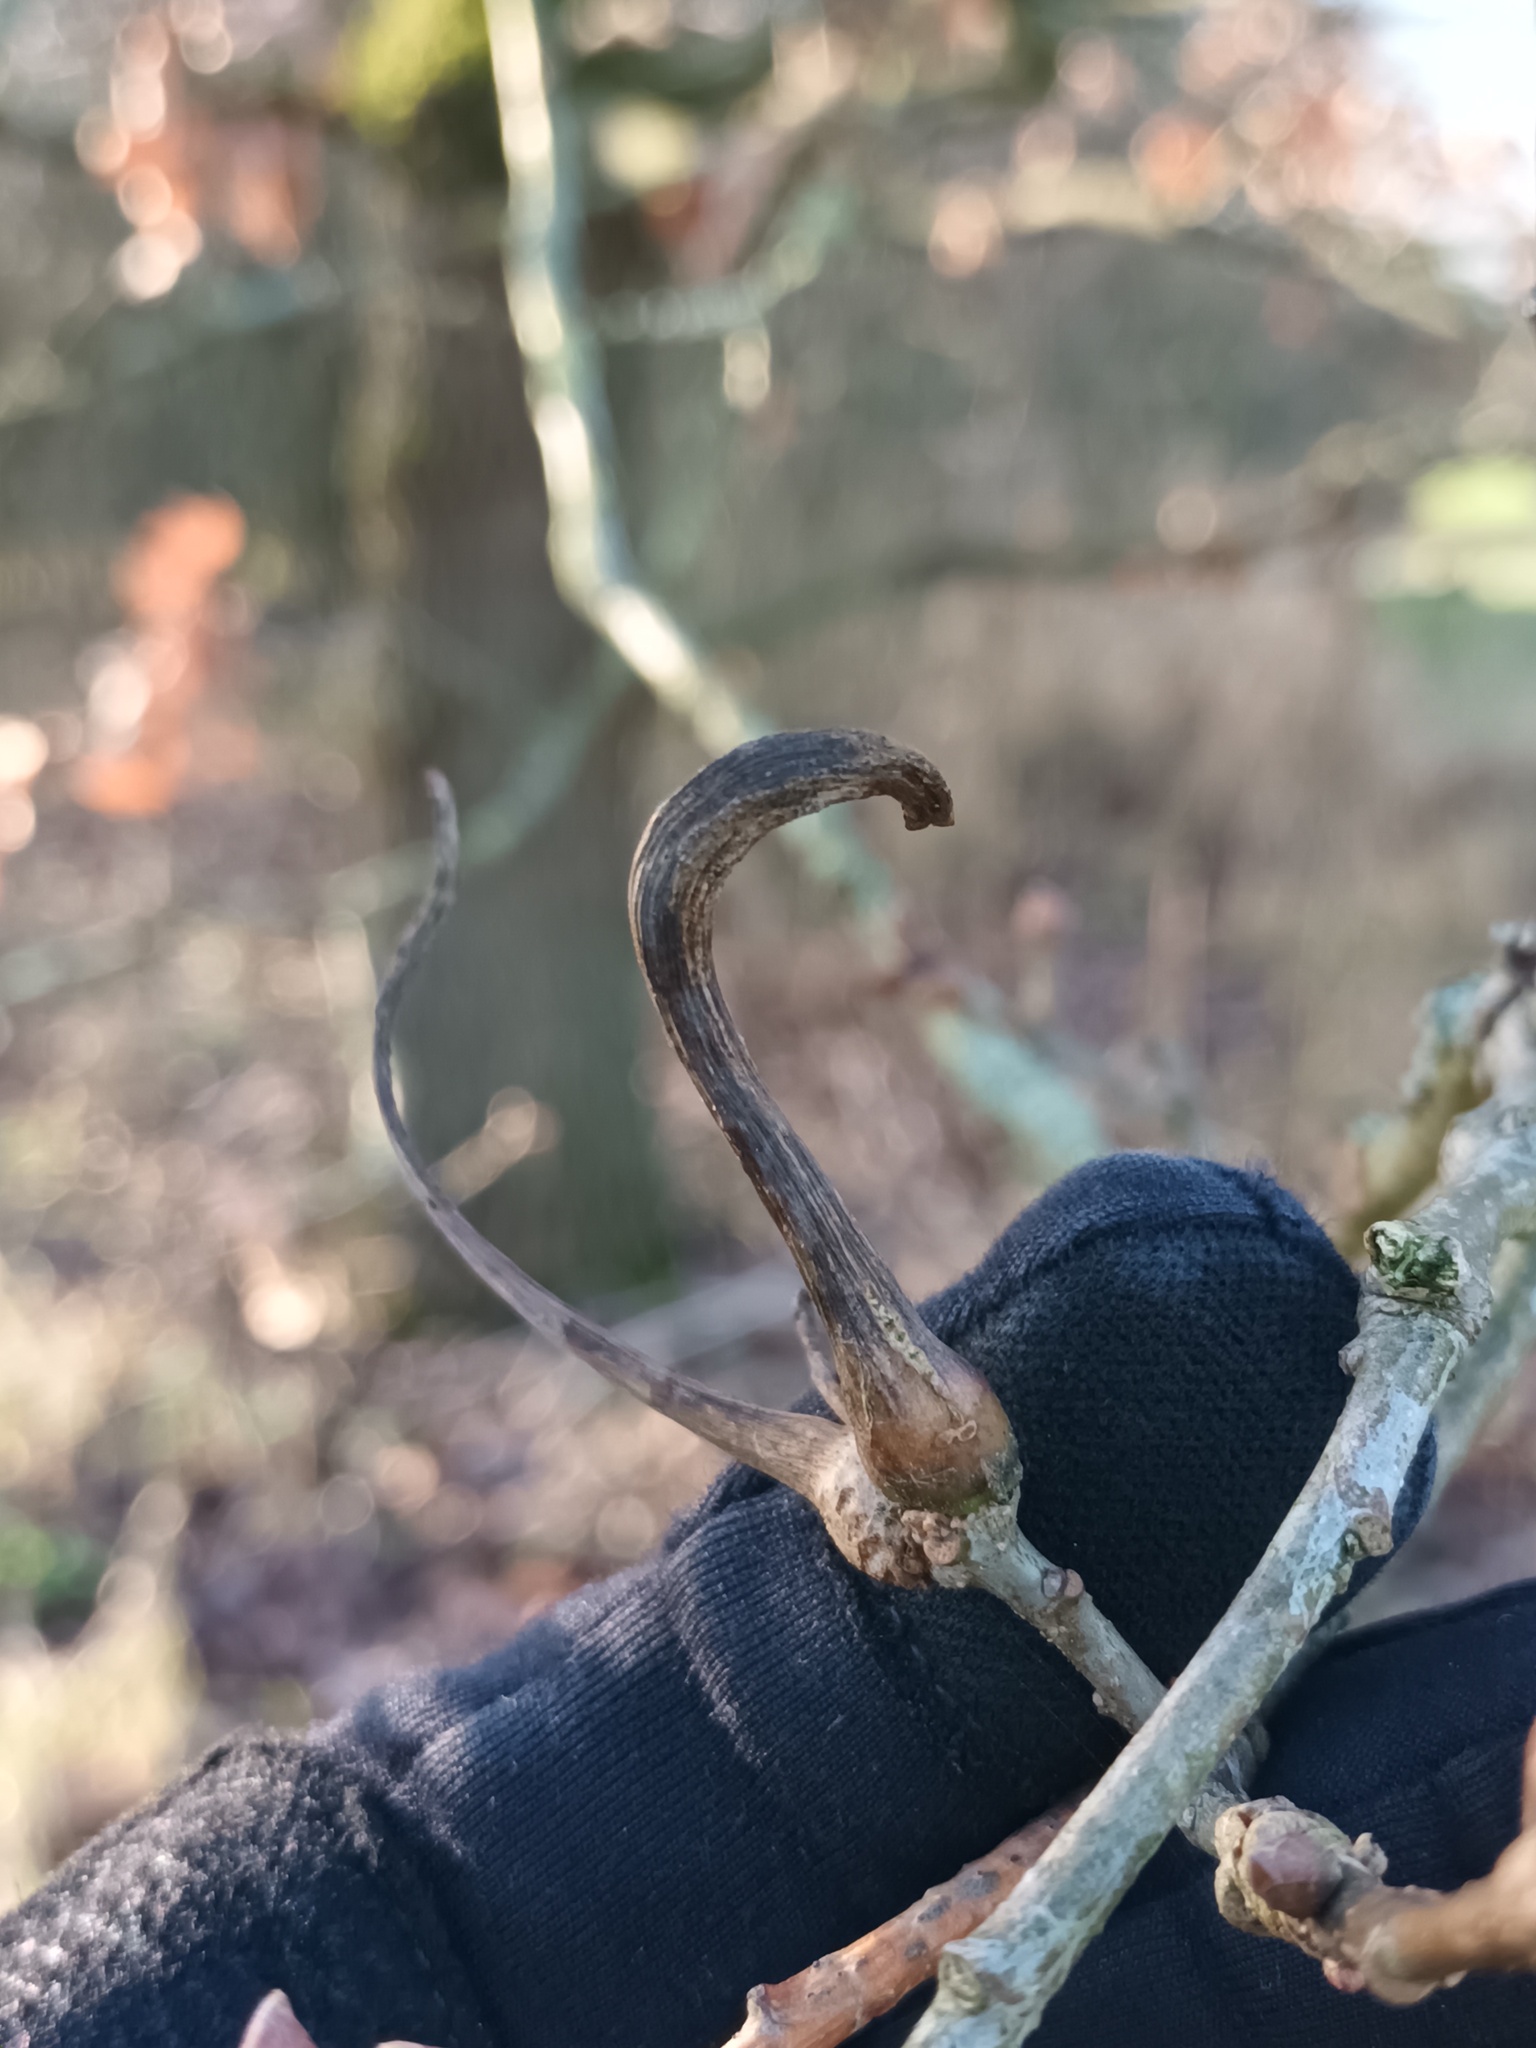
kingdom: Animalia
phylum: Arthropoda
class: Insecta
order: Hymenoptera
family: Cynipidae
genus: Andricus
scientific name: Andricus aries
